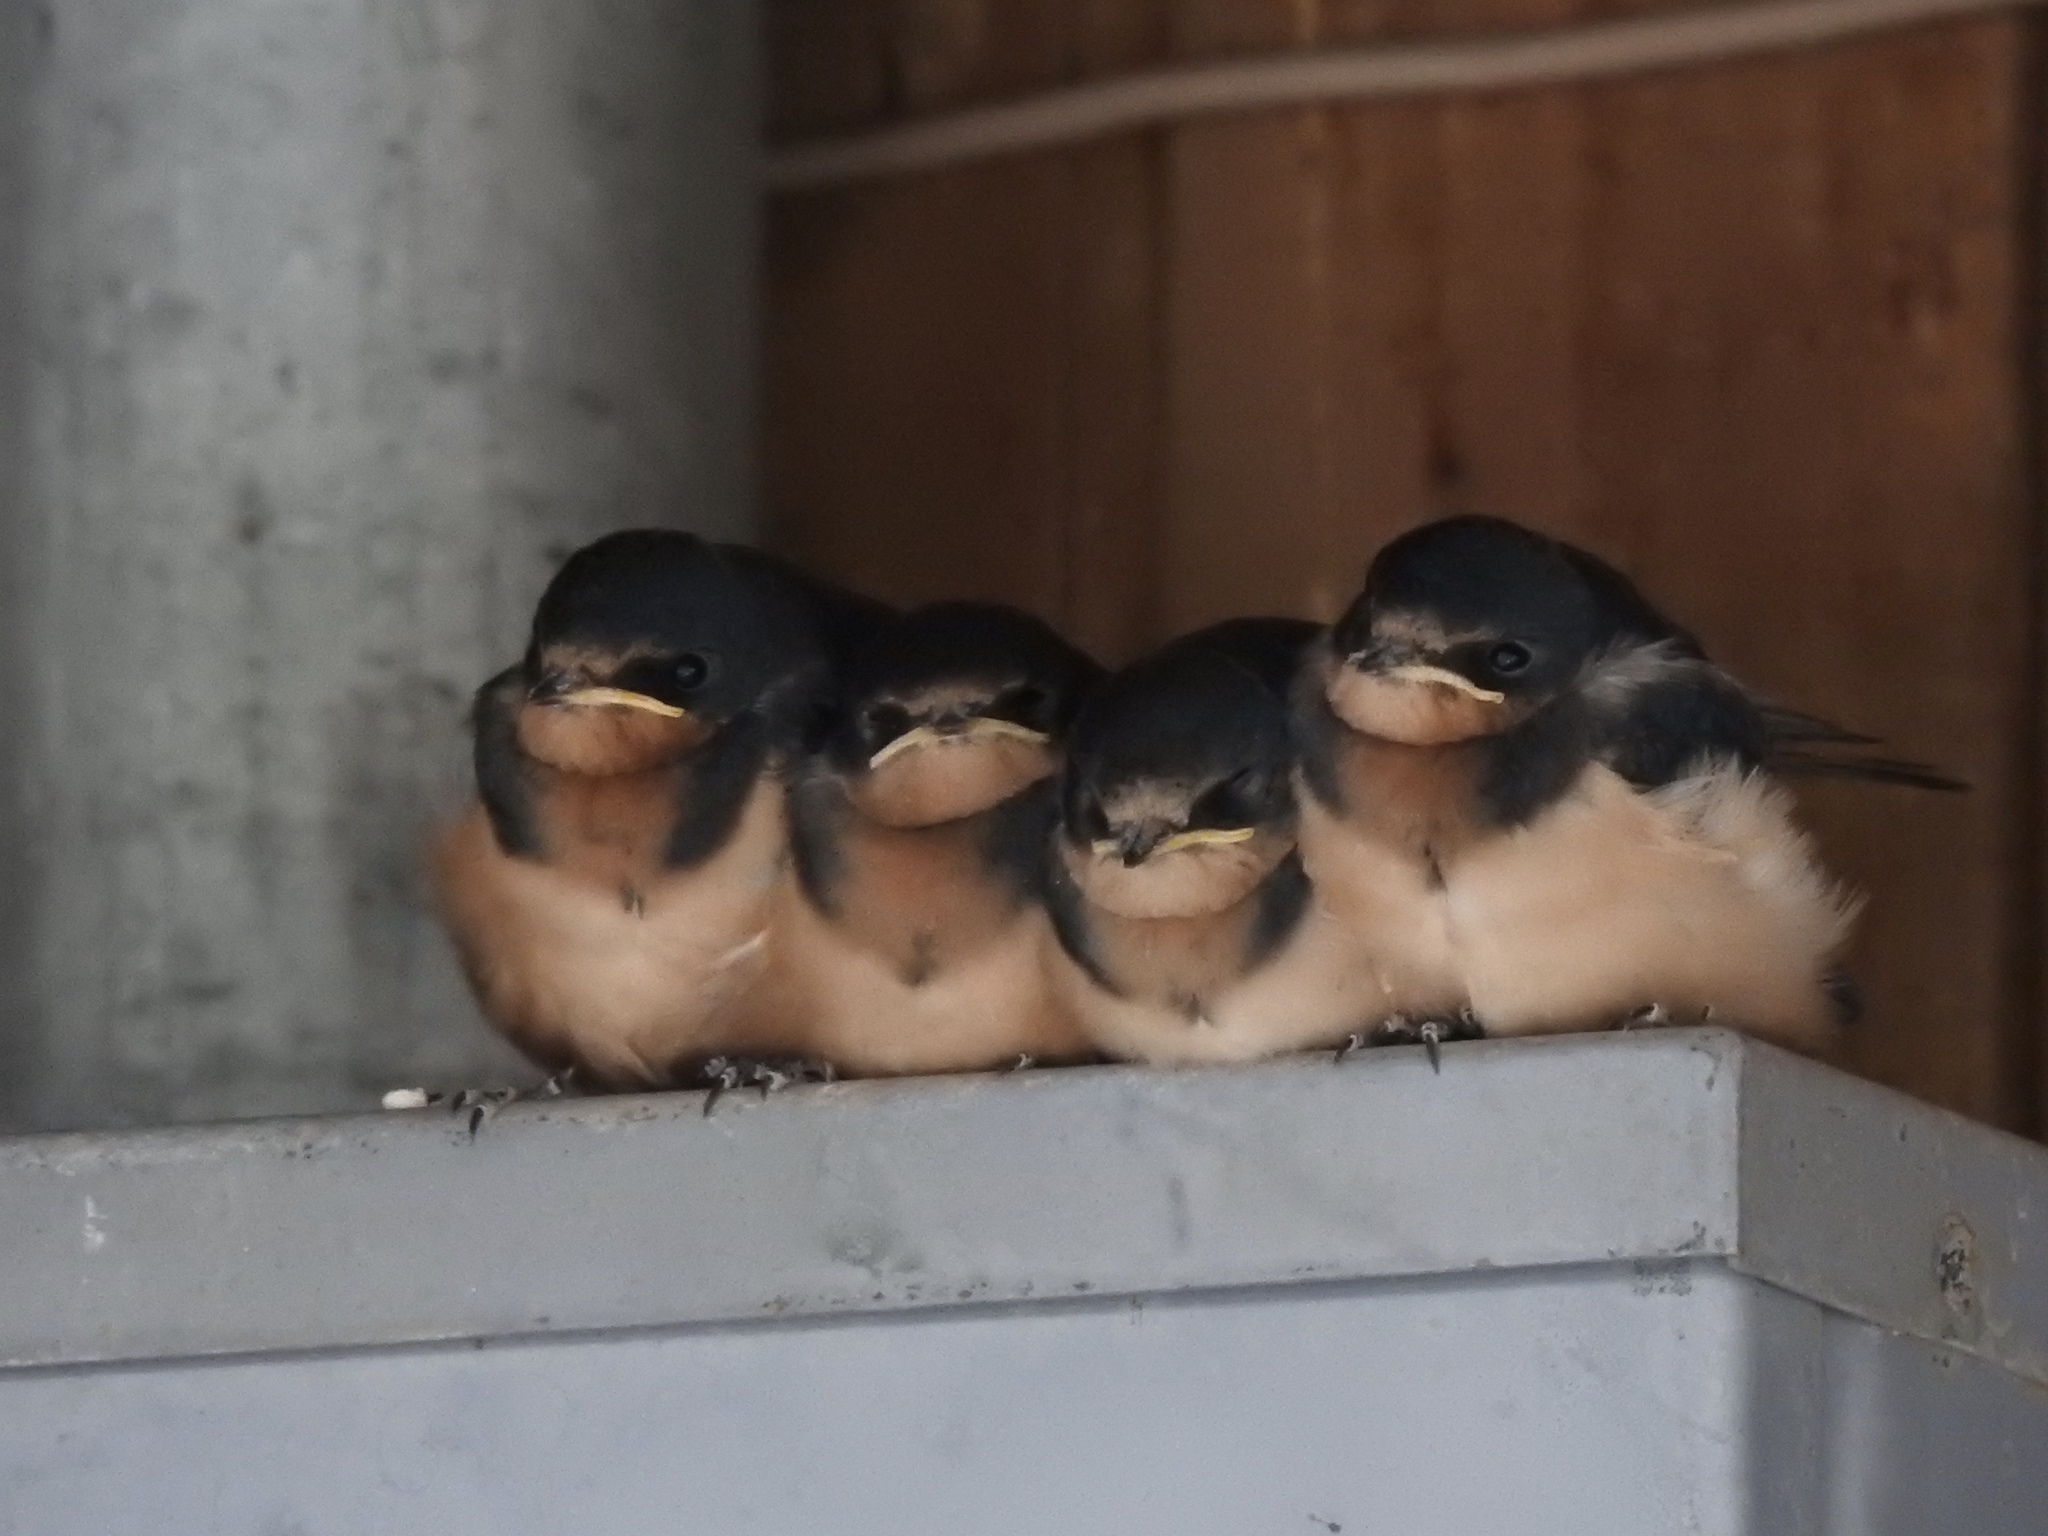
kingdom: Animalia
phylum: Chordata
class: Aves
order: Passeriformes
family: Hirundinidae
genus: Hirundo
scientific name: Hirundo rustica
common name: Barn swallow
